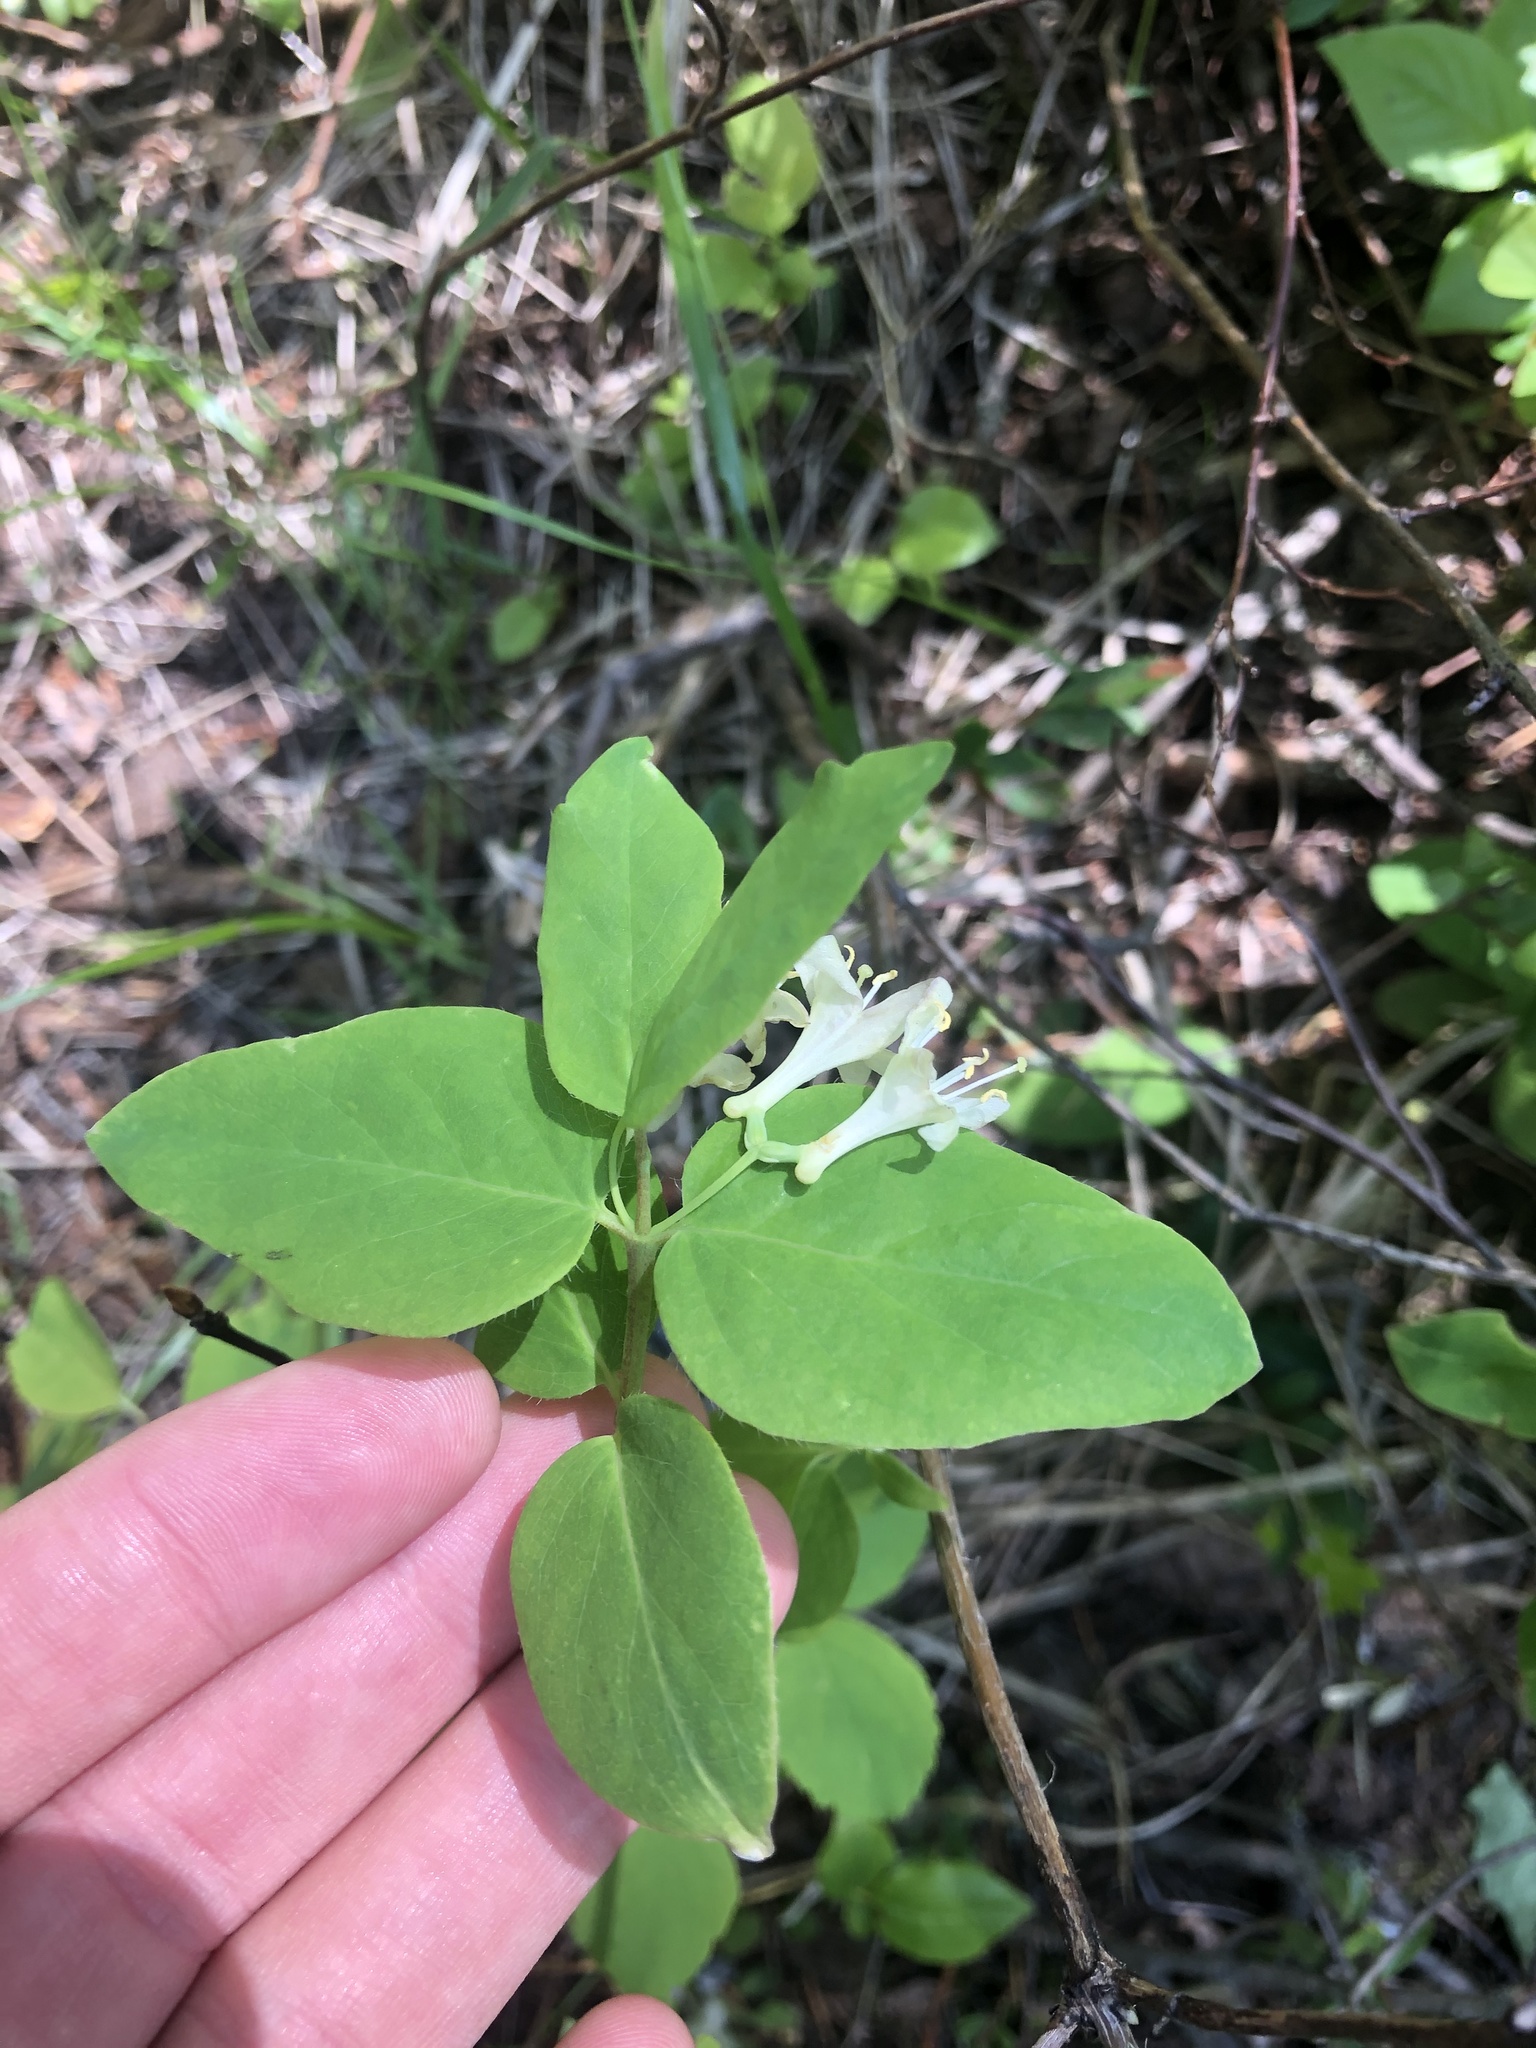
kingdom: Plantae
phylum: Tracheophyta
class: Magnoliopsida
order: Dipsacales
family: Caprifoliaceae
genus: Lonicera
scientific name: Lonicera utahensis
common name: Utah honeysuckle
